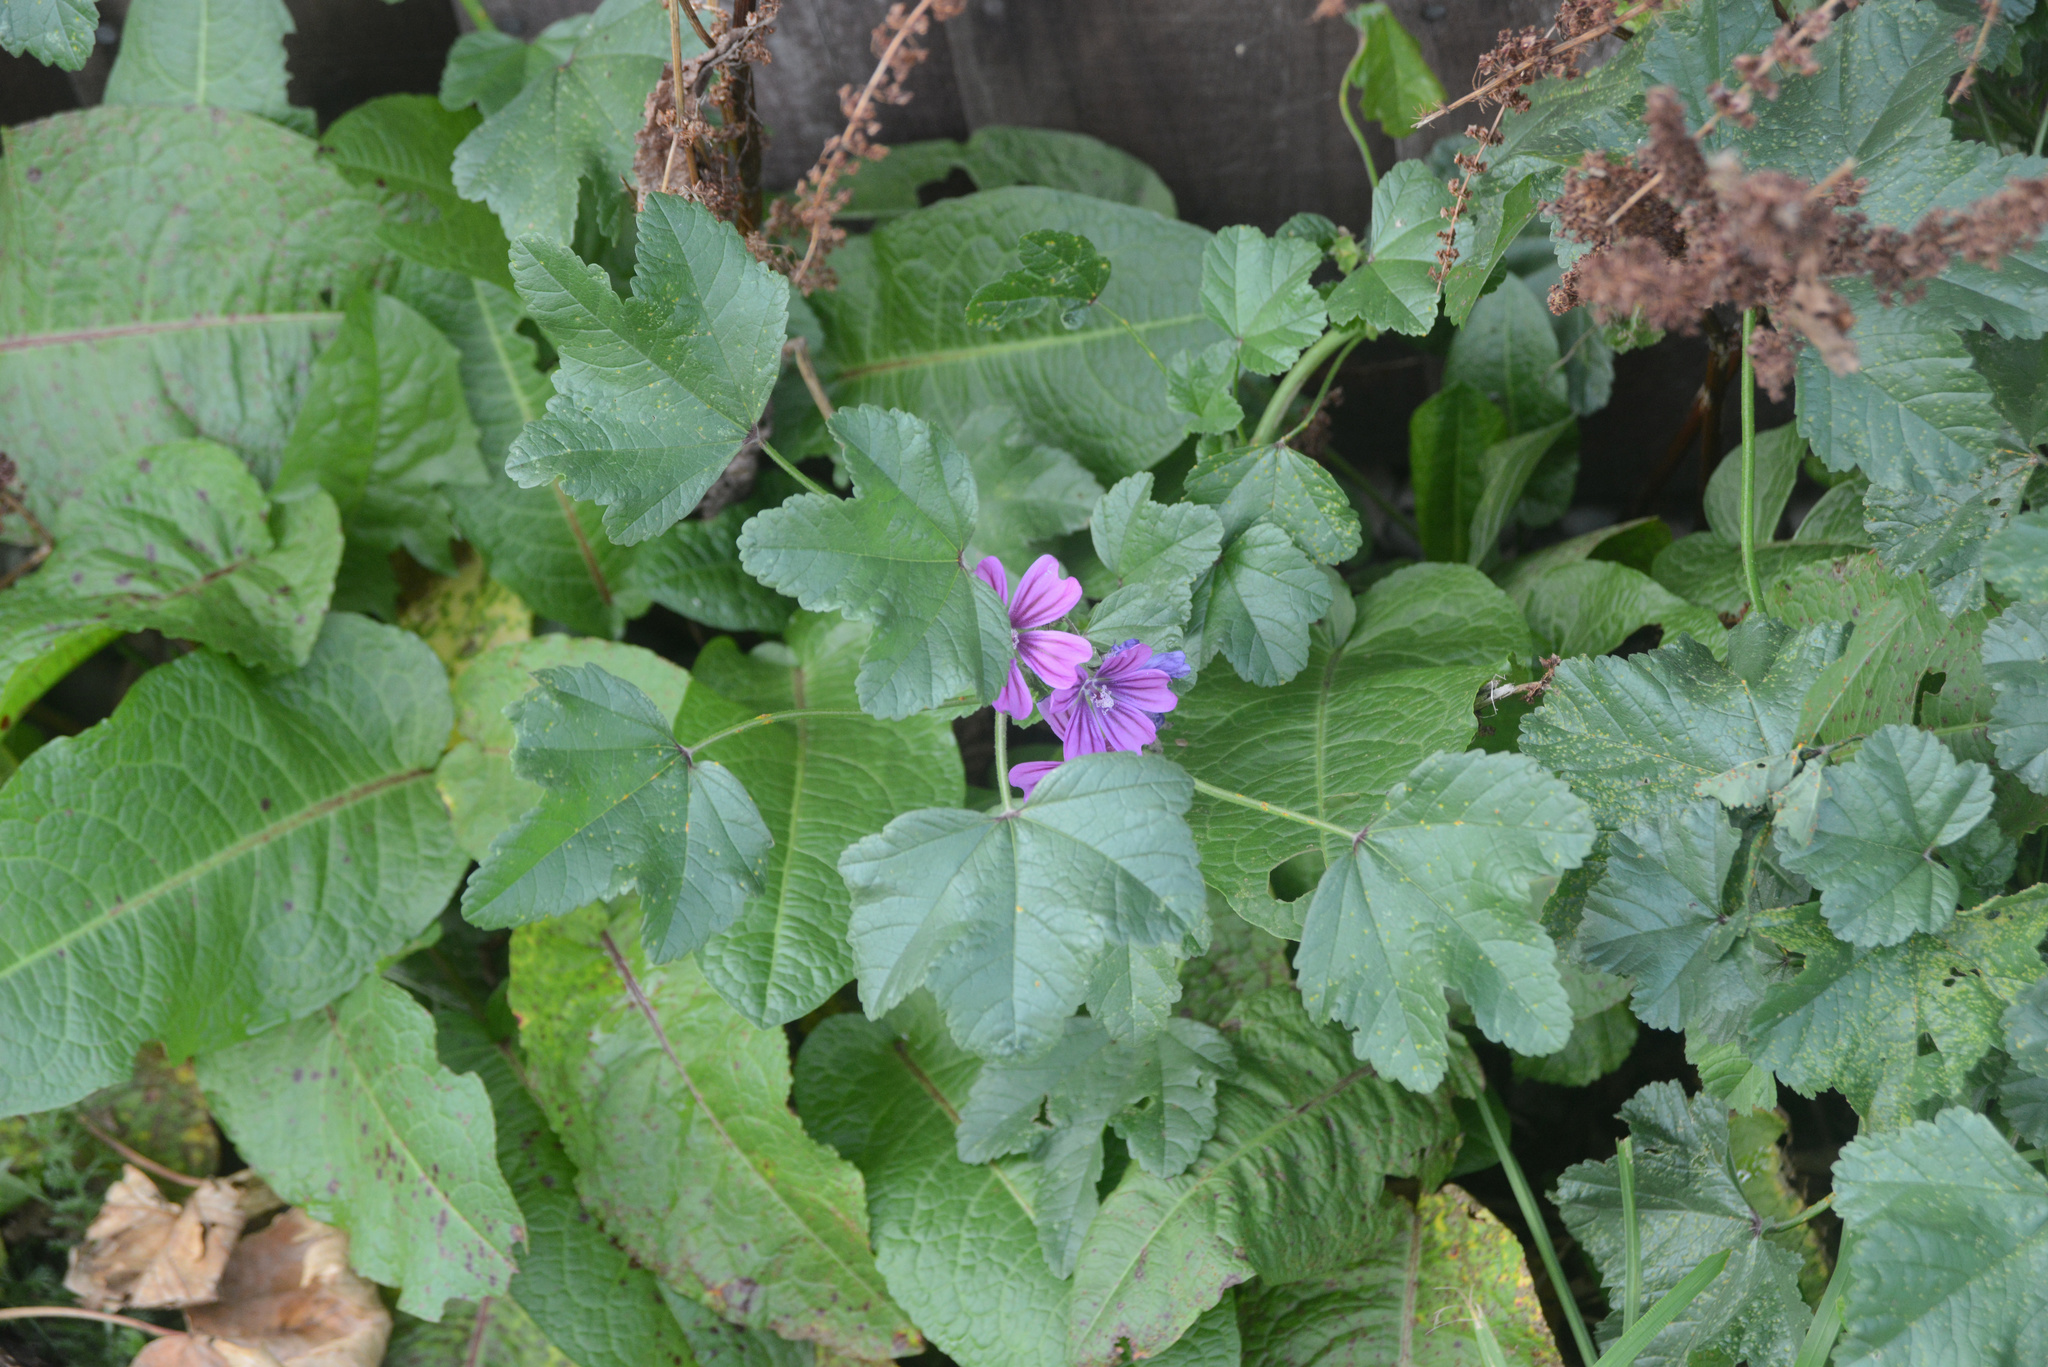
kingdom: Plantae
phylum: Tracheophyta
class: Magnoliopsida
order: Malvales
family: Malvaceae
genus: Malva
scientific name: Malva sylvestris
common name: Common mallow
